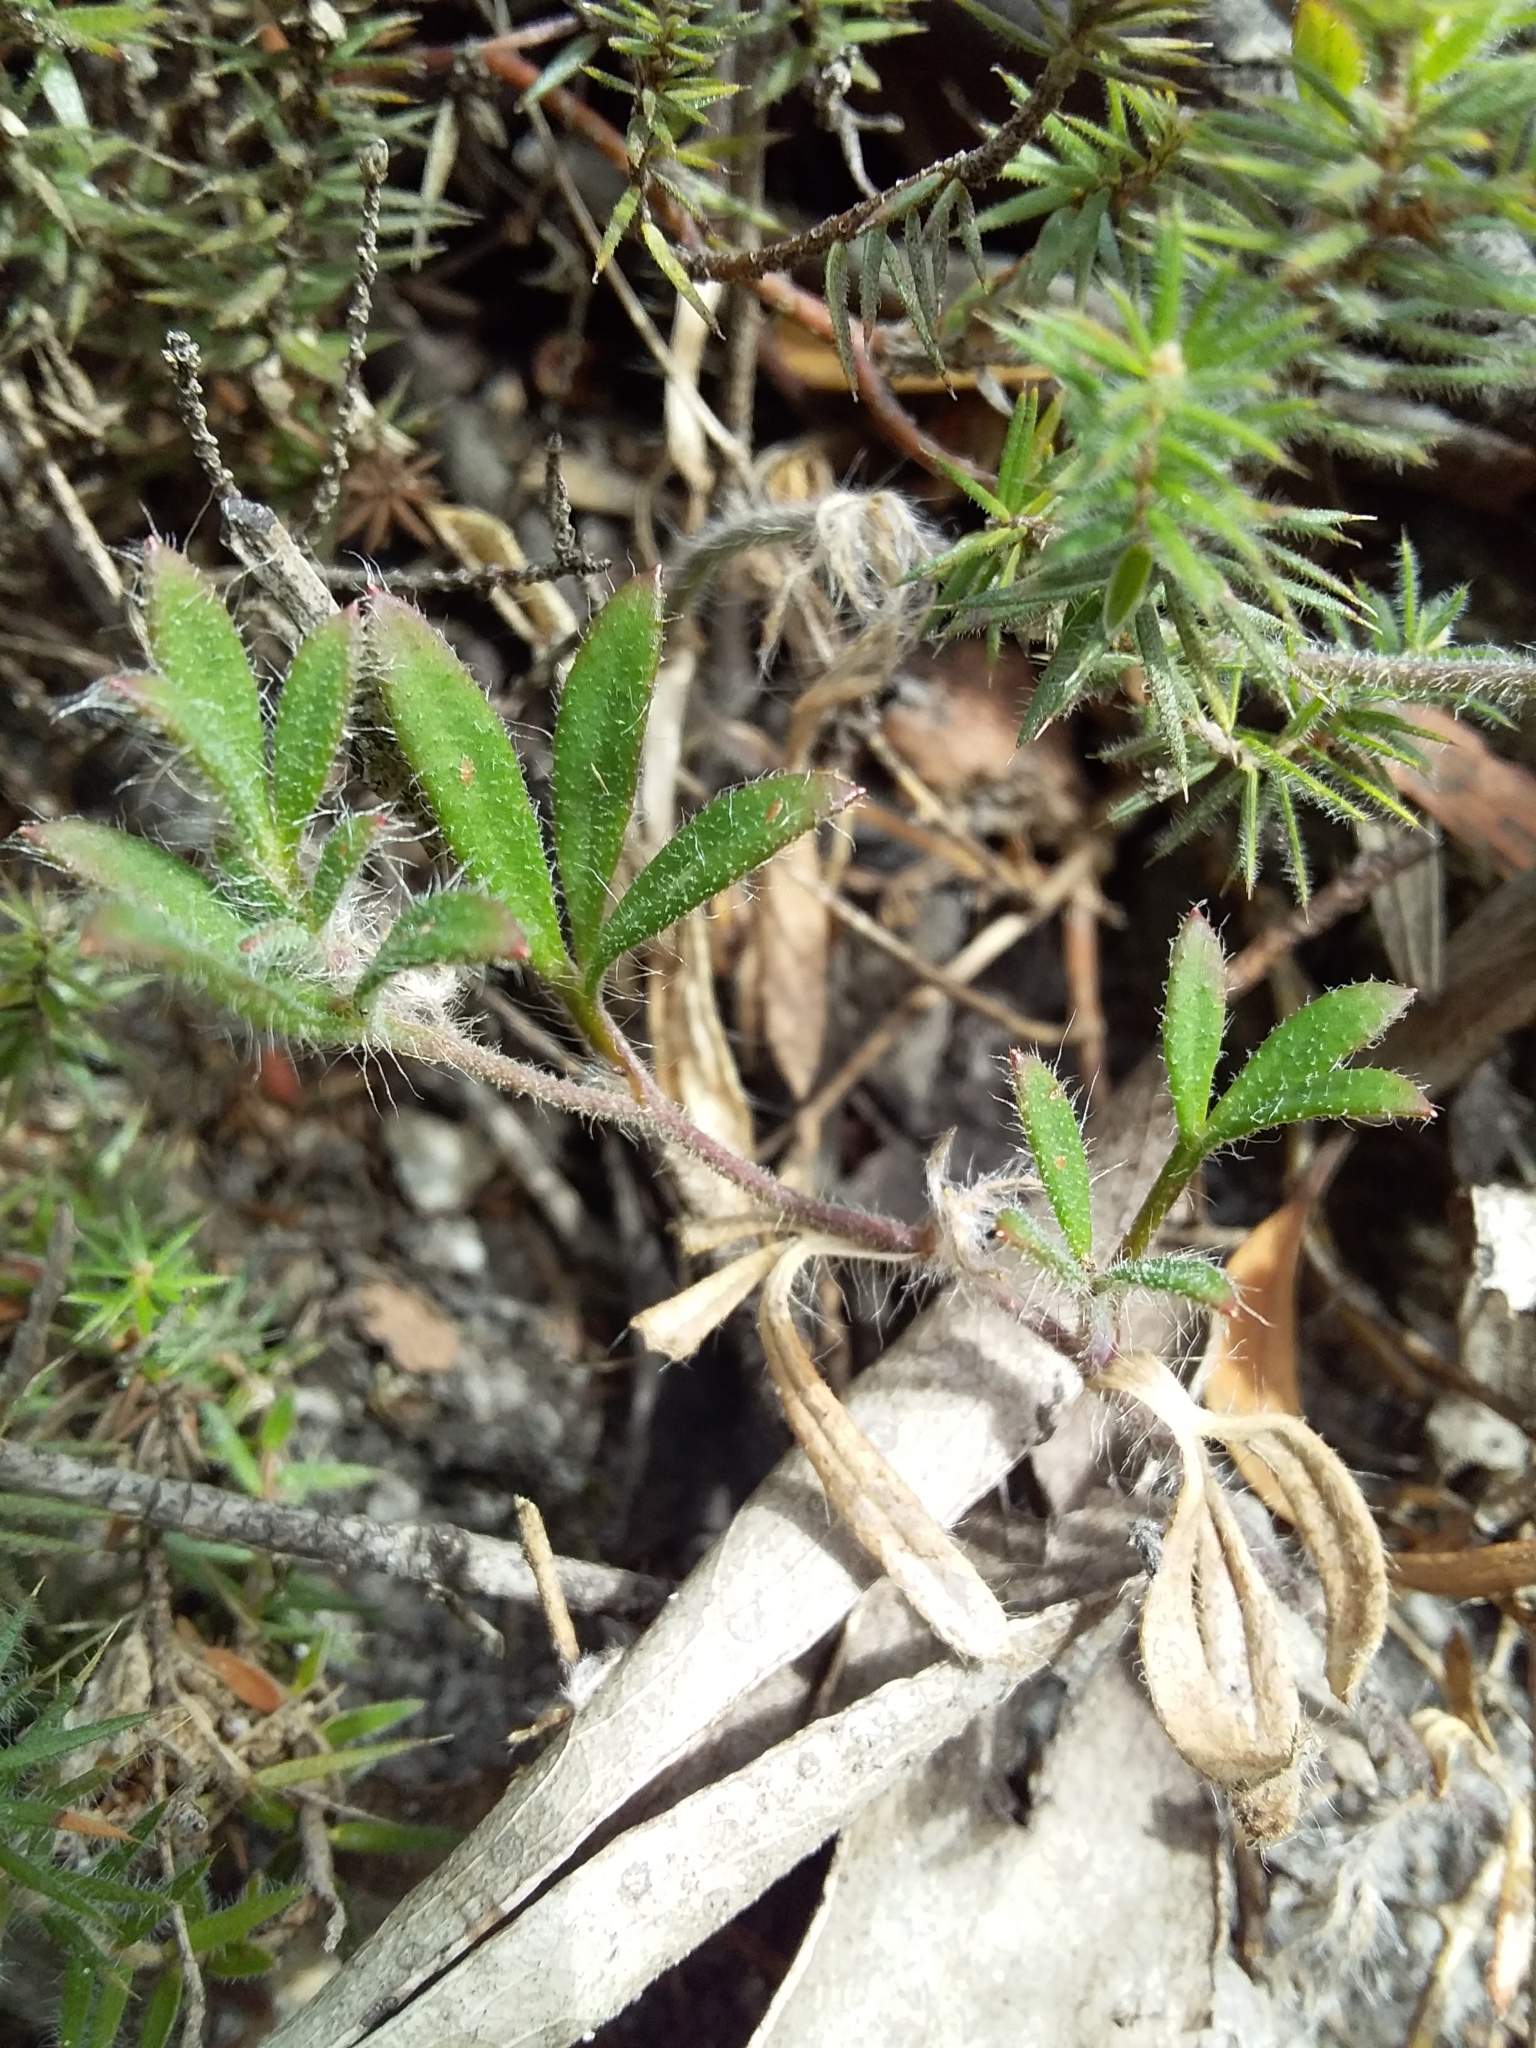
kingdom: Plantae
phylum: Tracheophyta
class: Magnoliopsida
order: Apiales
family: Apiaceae
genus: Xanthosia
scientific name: Xanthosia huegelii
